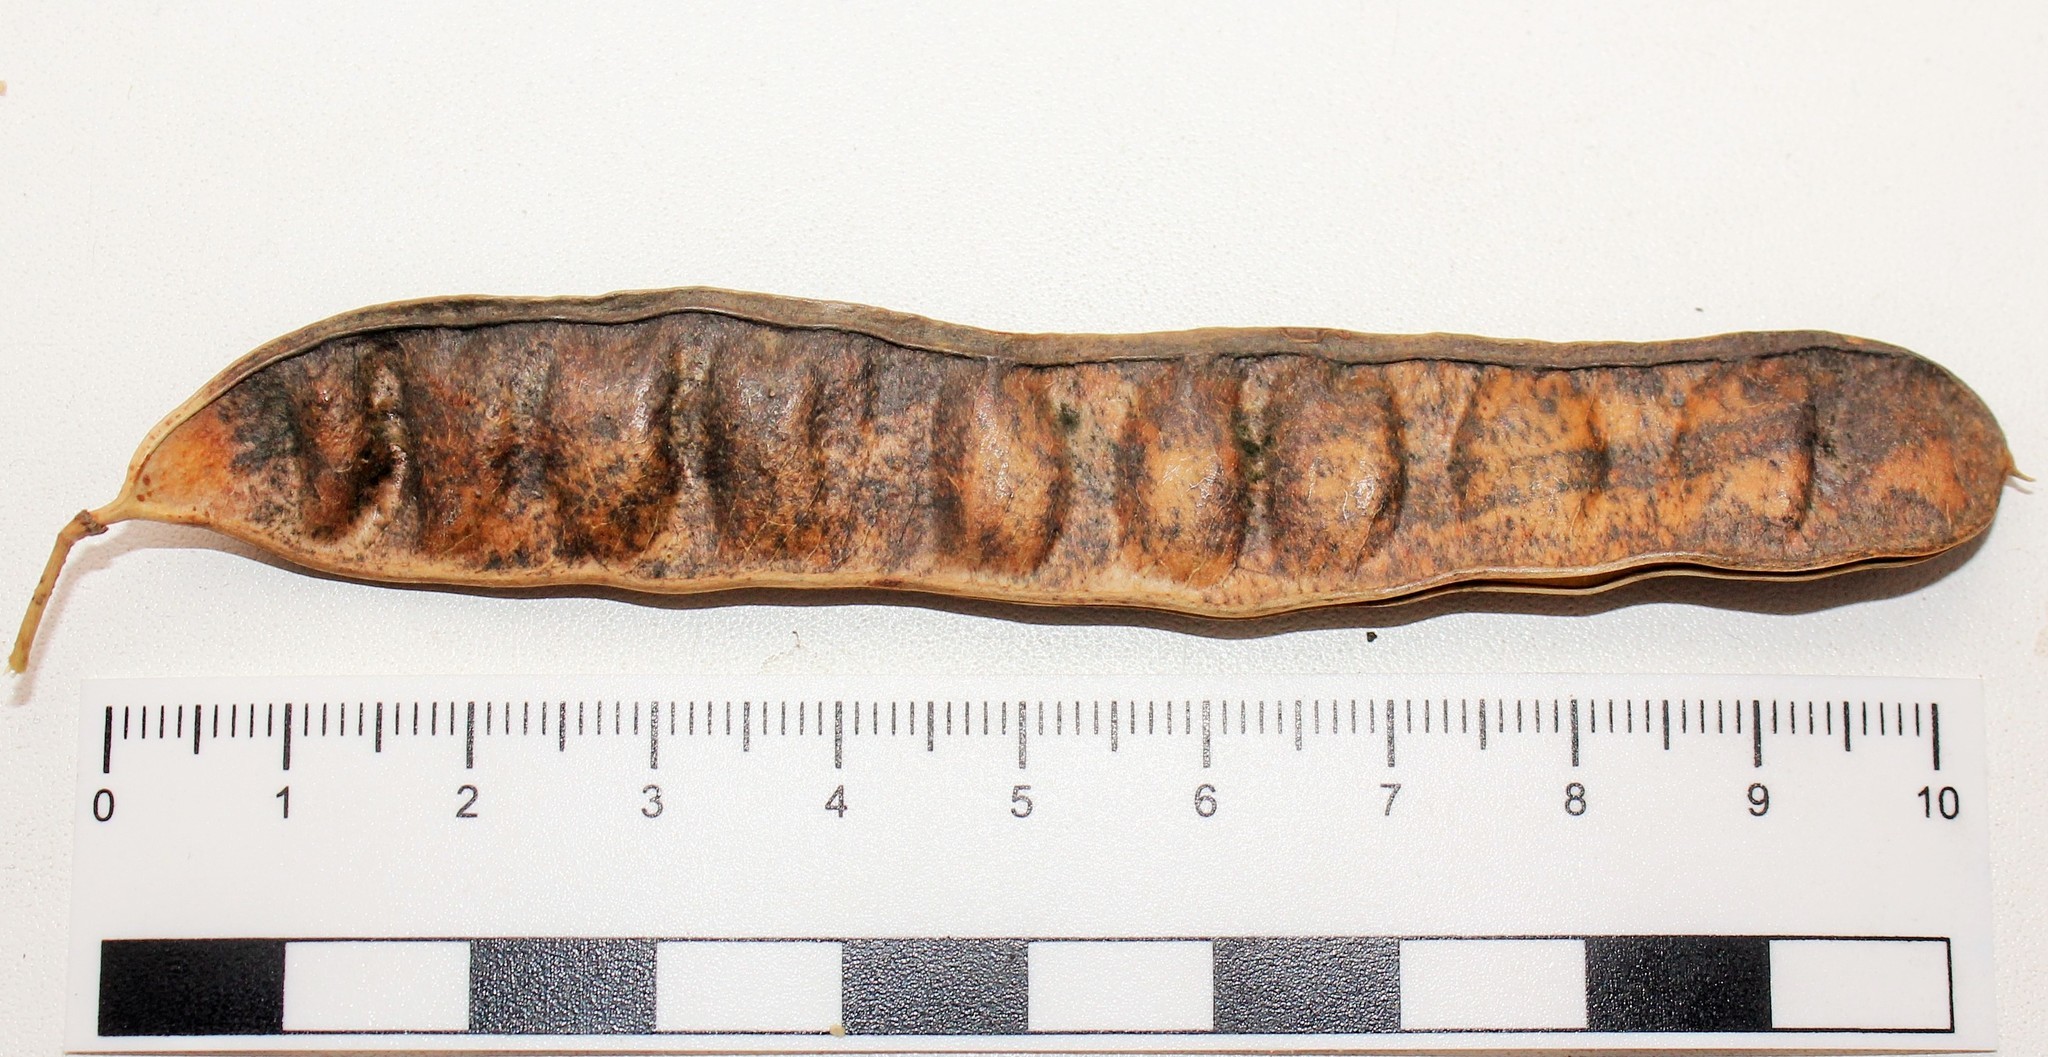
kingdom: Plantae
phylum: Tracheophyta
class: Magnoliopsida
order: Fabales
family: Fabaceae
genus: Robinia
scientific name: Robinia pseudoacacia
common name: Black locust
